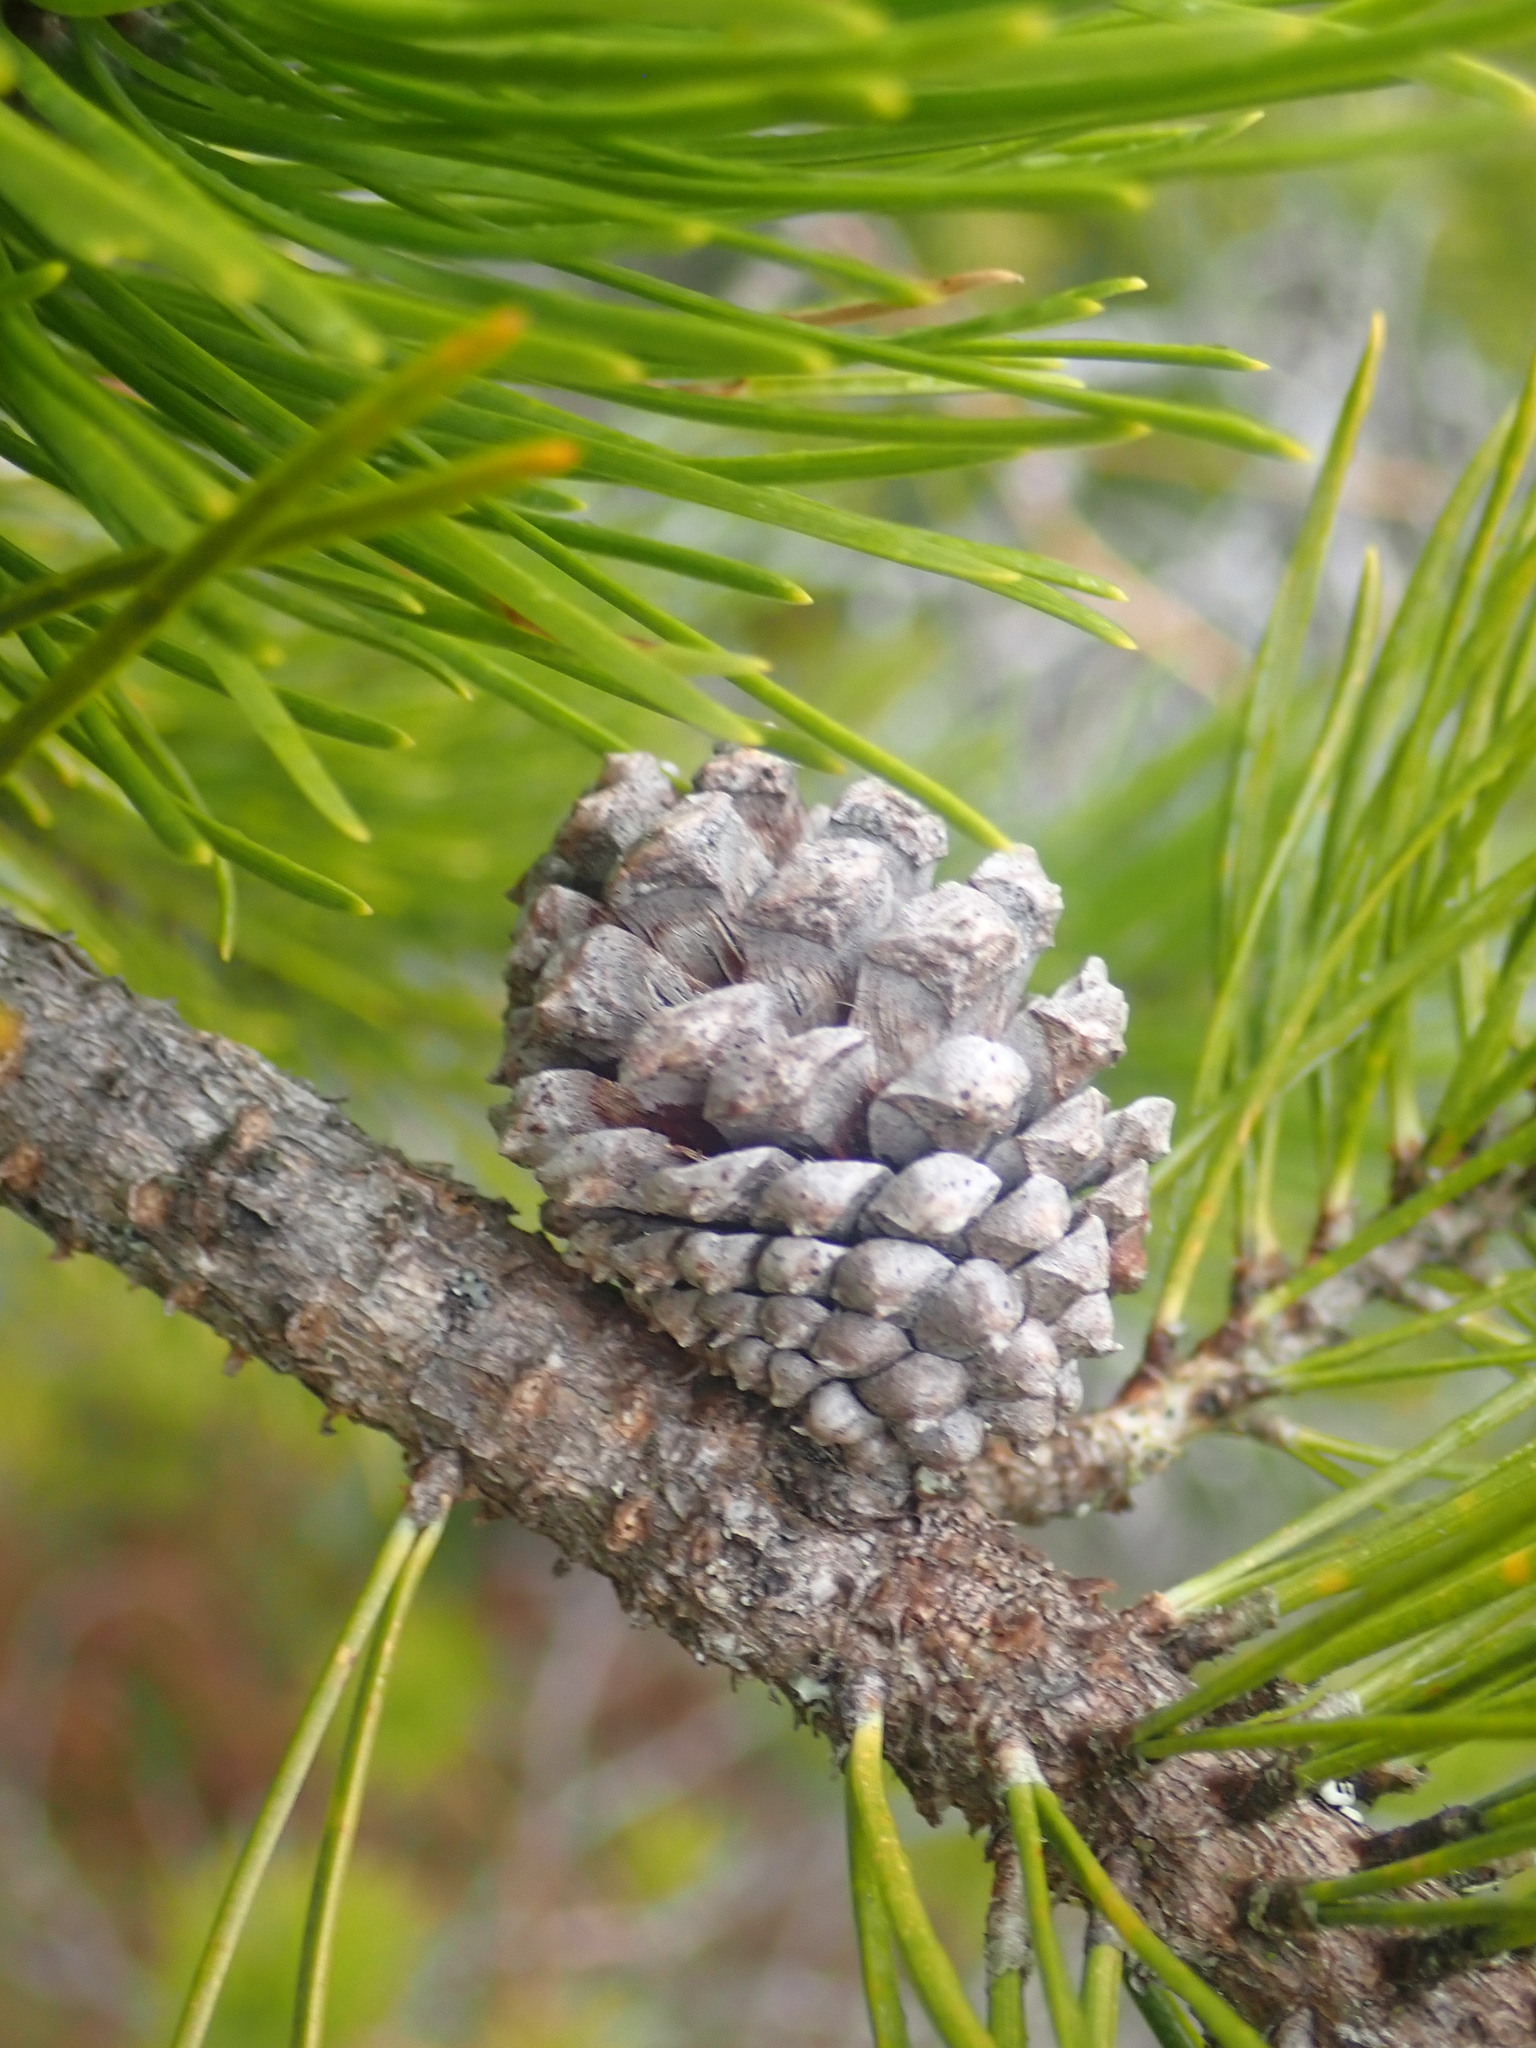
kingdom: Plantae
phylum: Tracheophyta
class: Pinopsida
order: Pinales
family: Pinaceae
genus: Pinus
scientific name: Pinus contorta
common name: Lodgepole pine
